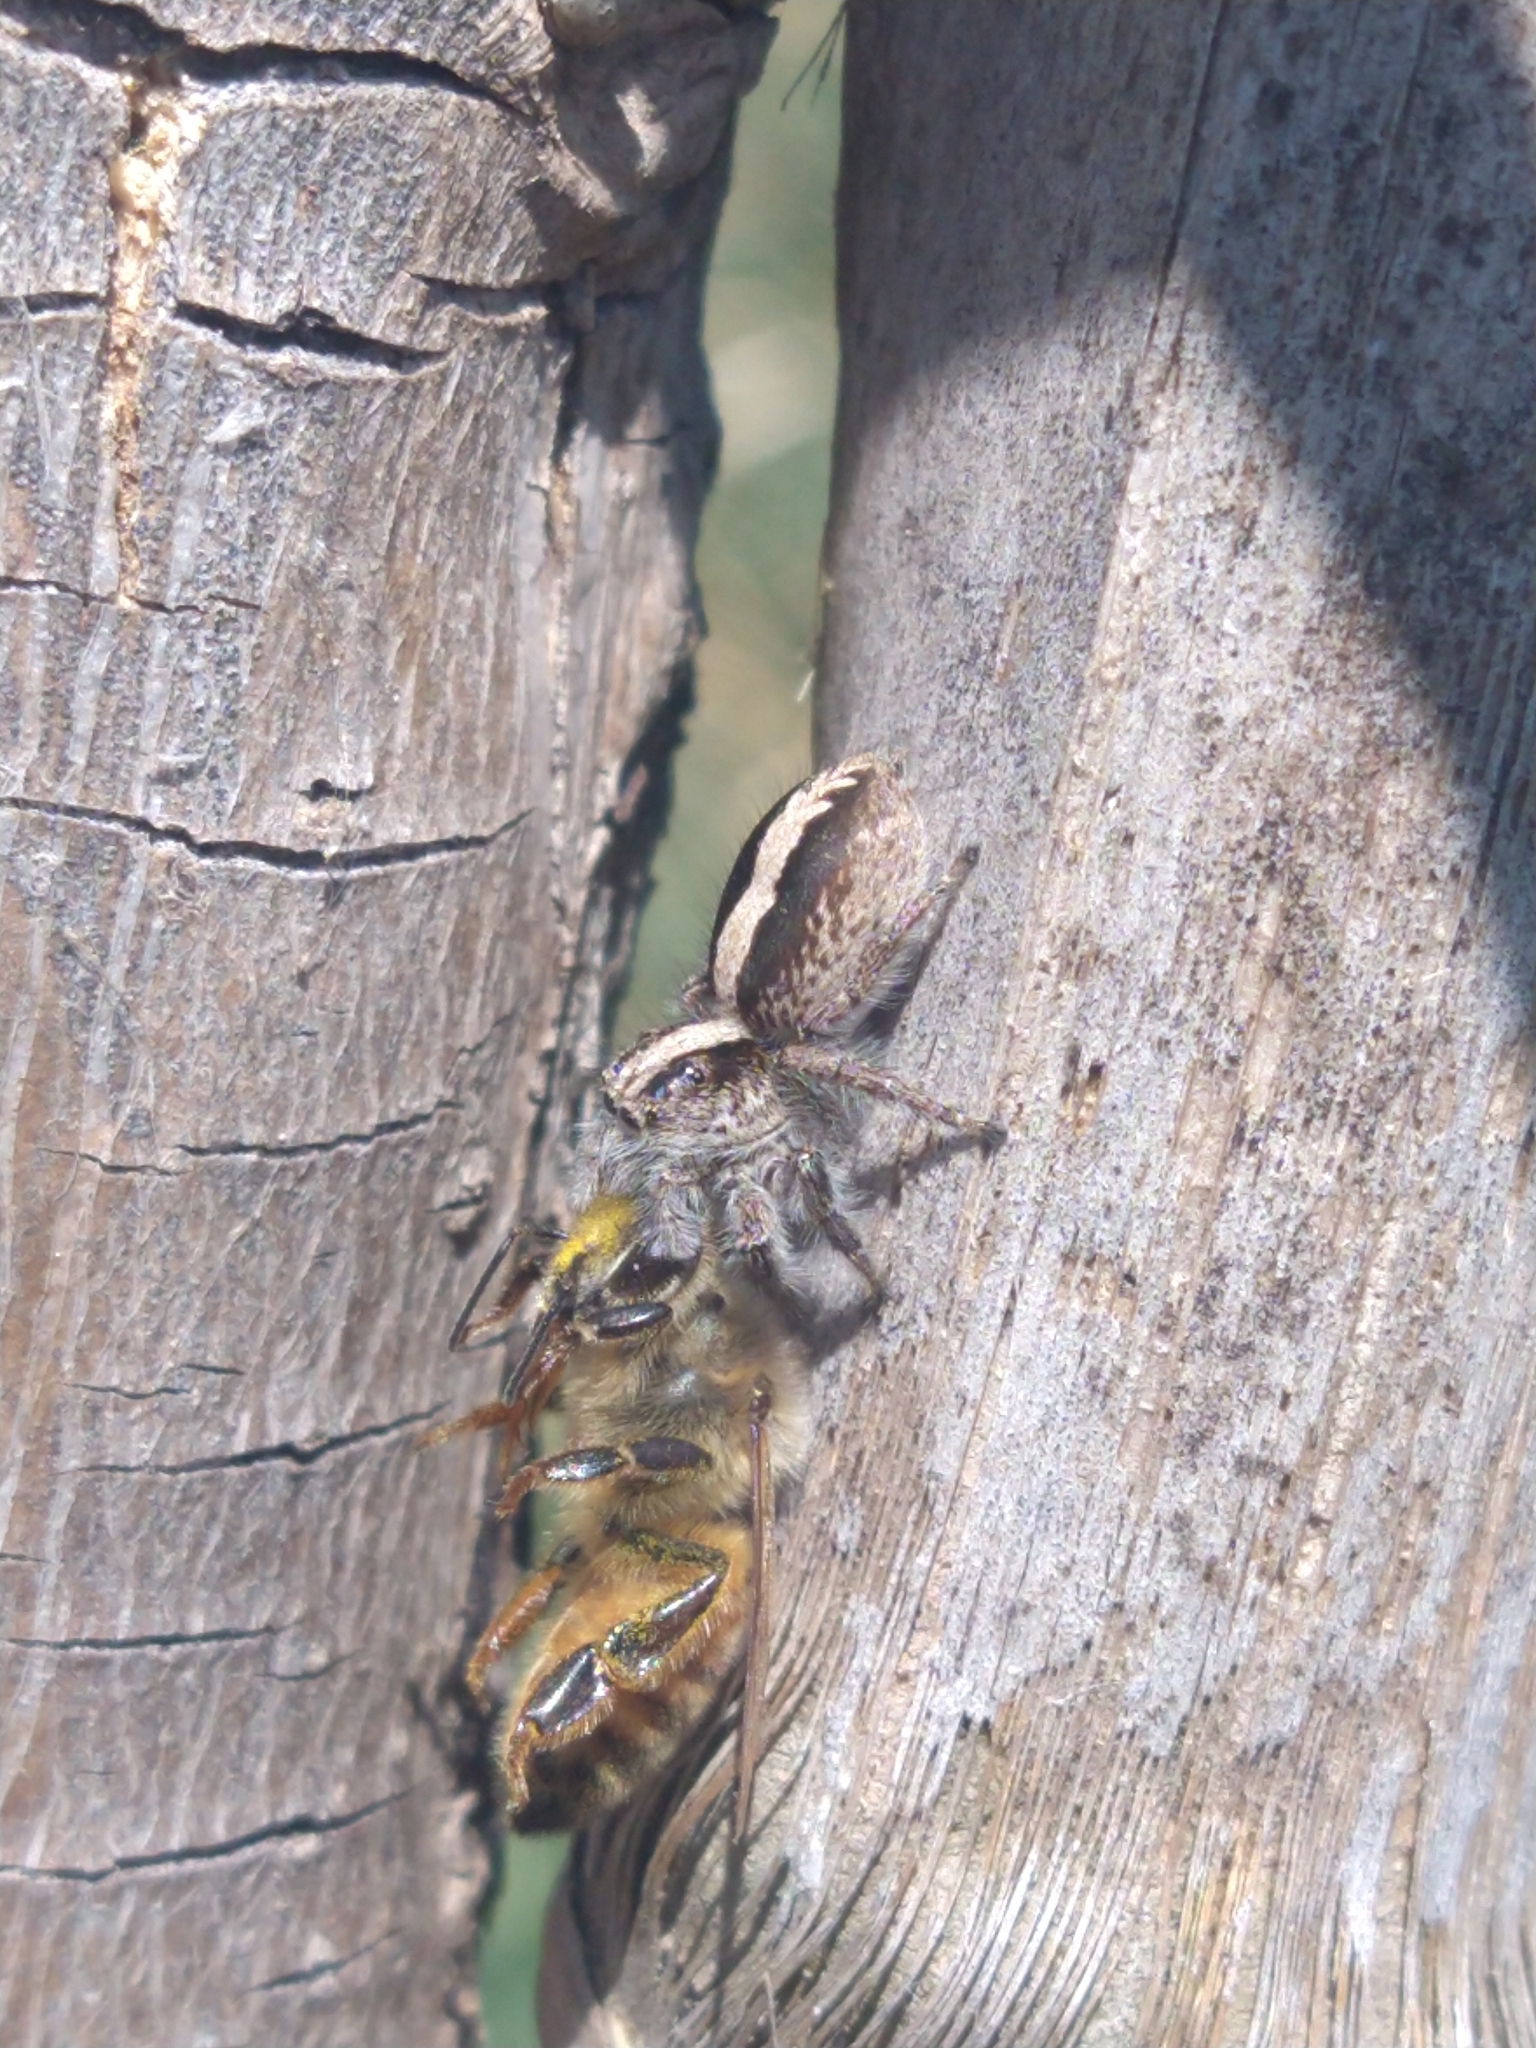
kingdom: Animalia
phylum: Arthropoda
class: Arachnida
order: Araneae
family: Salticidae
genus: Megafreya
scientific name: Megafreya sutrix
